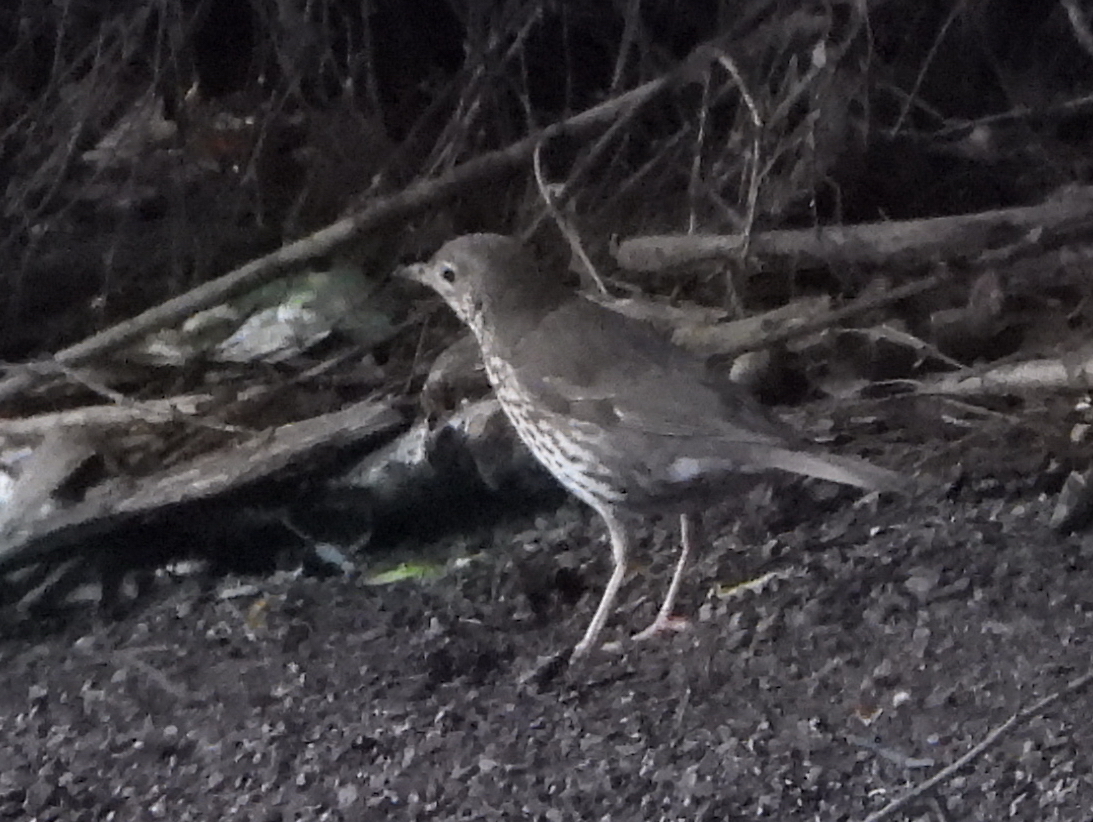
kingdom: Animalia
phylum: Chordata
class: Aves
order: Passeriformes
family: Turdidae
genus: Turdus
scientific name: Turdus philomelos
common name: Song thrush
